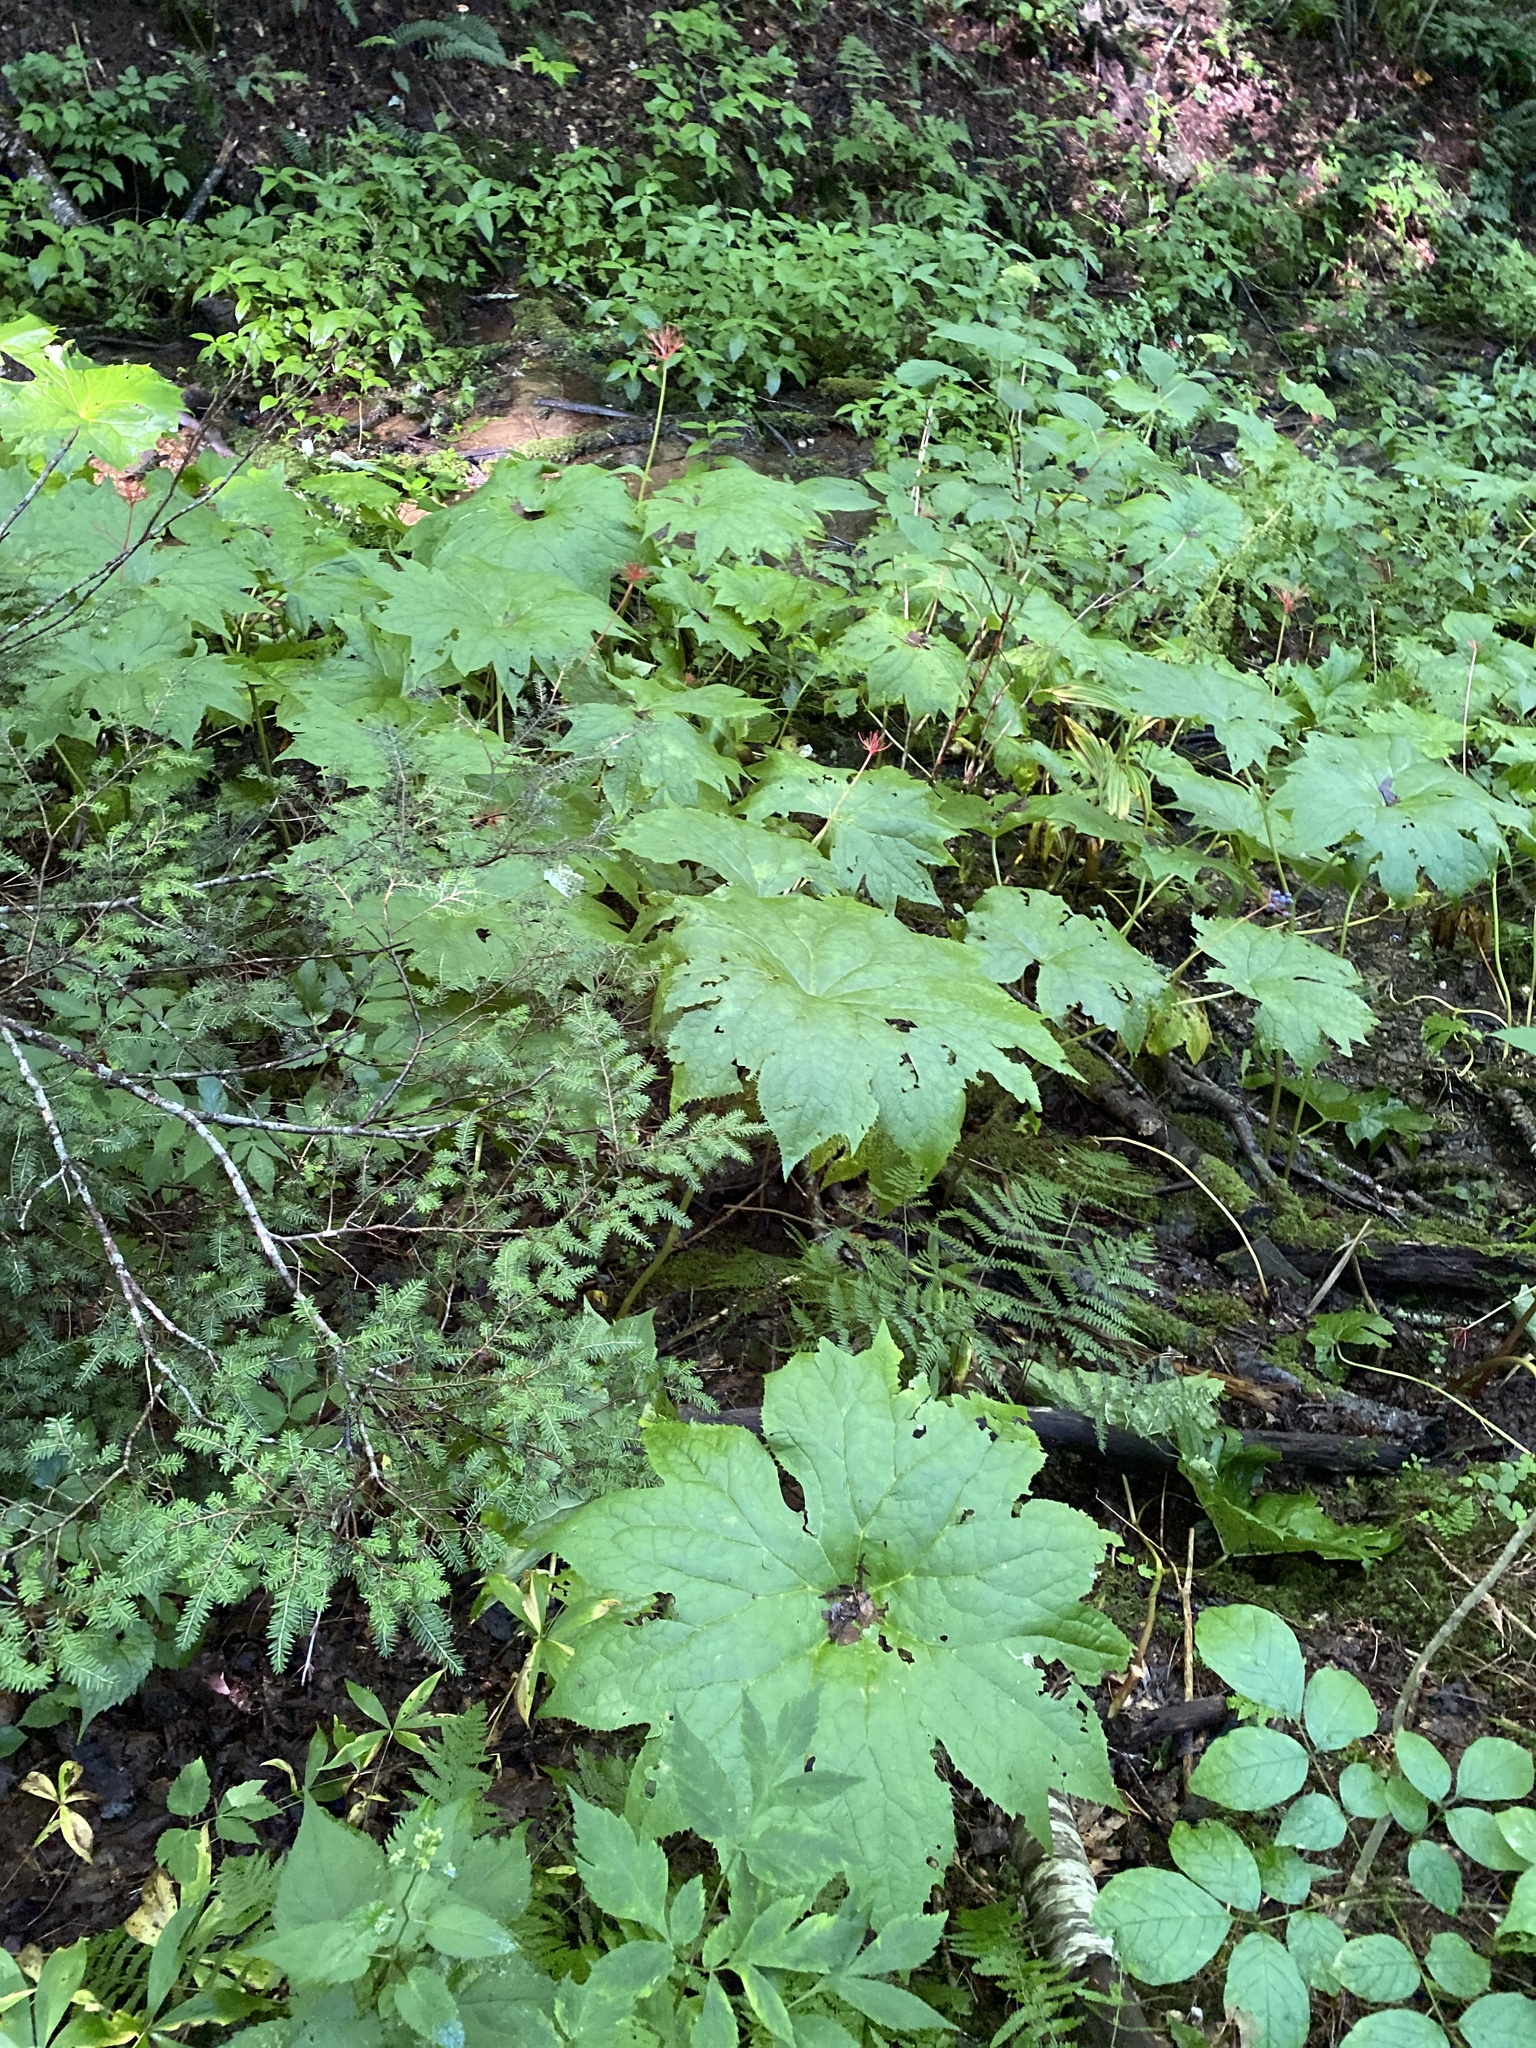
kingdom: Plantae
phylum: Tracheophyta
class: Magnoliopsida
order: Ranunculales
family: Berberidaceae
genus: Diphylleia
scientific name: Diphylleia cymosa
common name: Umbrella-leaf
